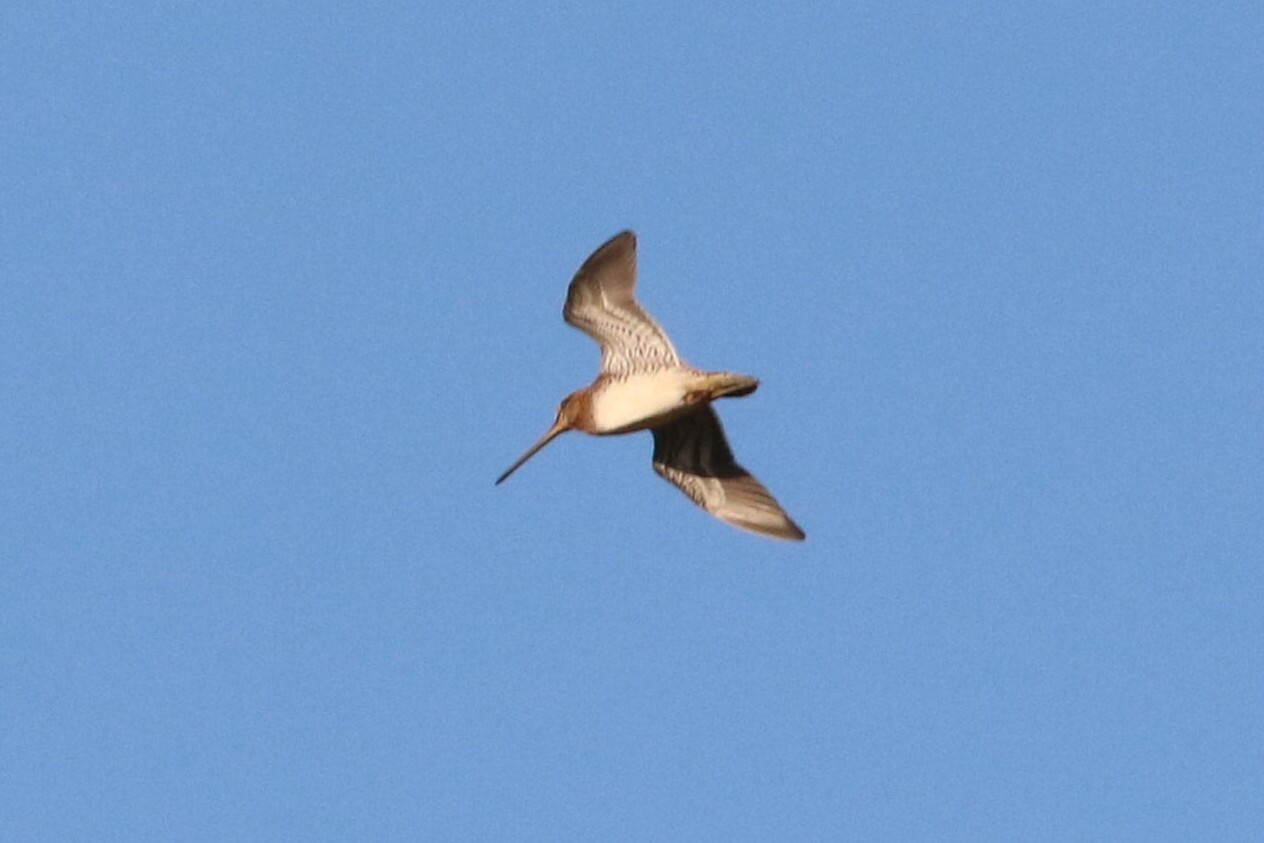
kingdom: Animalia
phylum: Chordata
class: Aves
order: Charadriiformes
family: Scolopacidae
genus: Gallinago
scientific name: Gallinago gallinago
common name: Common snipe
